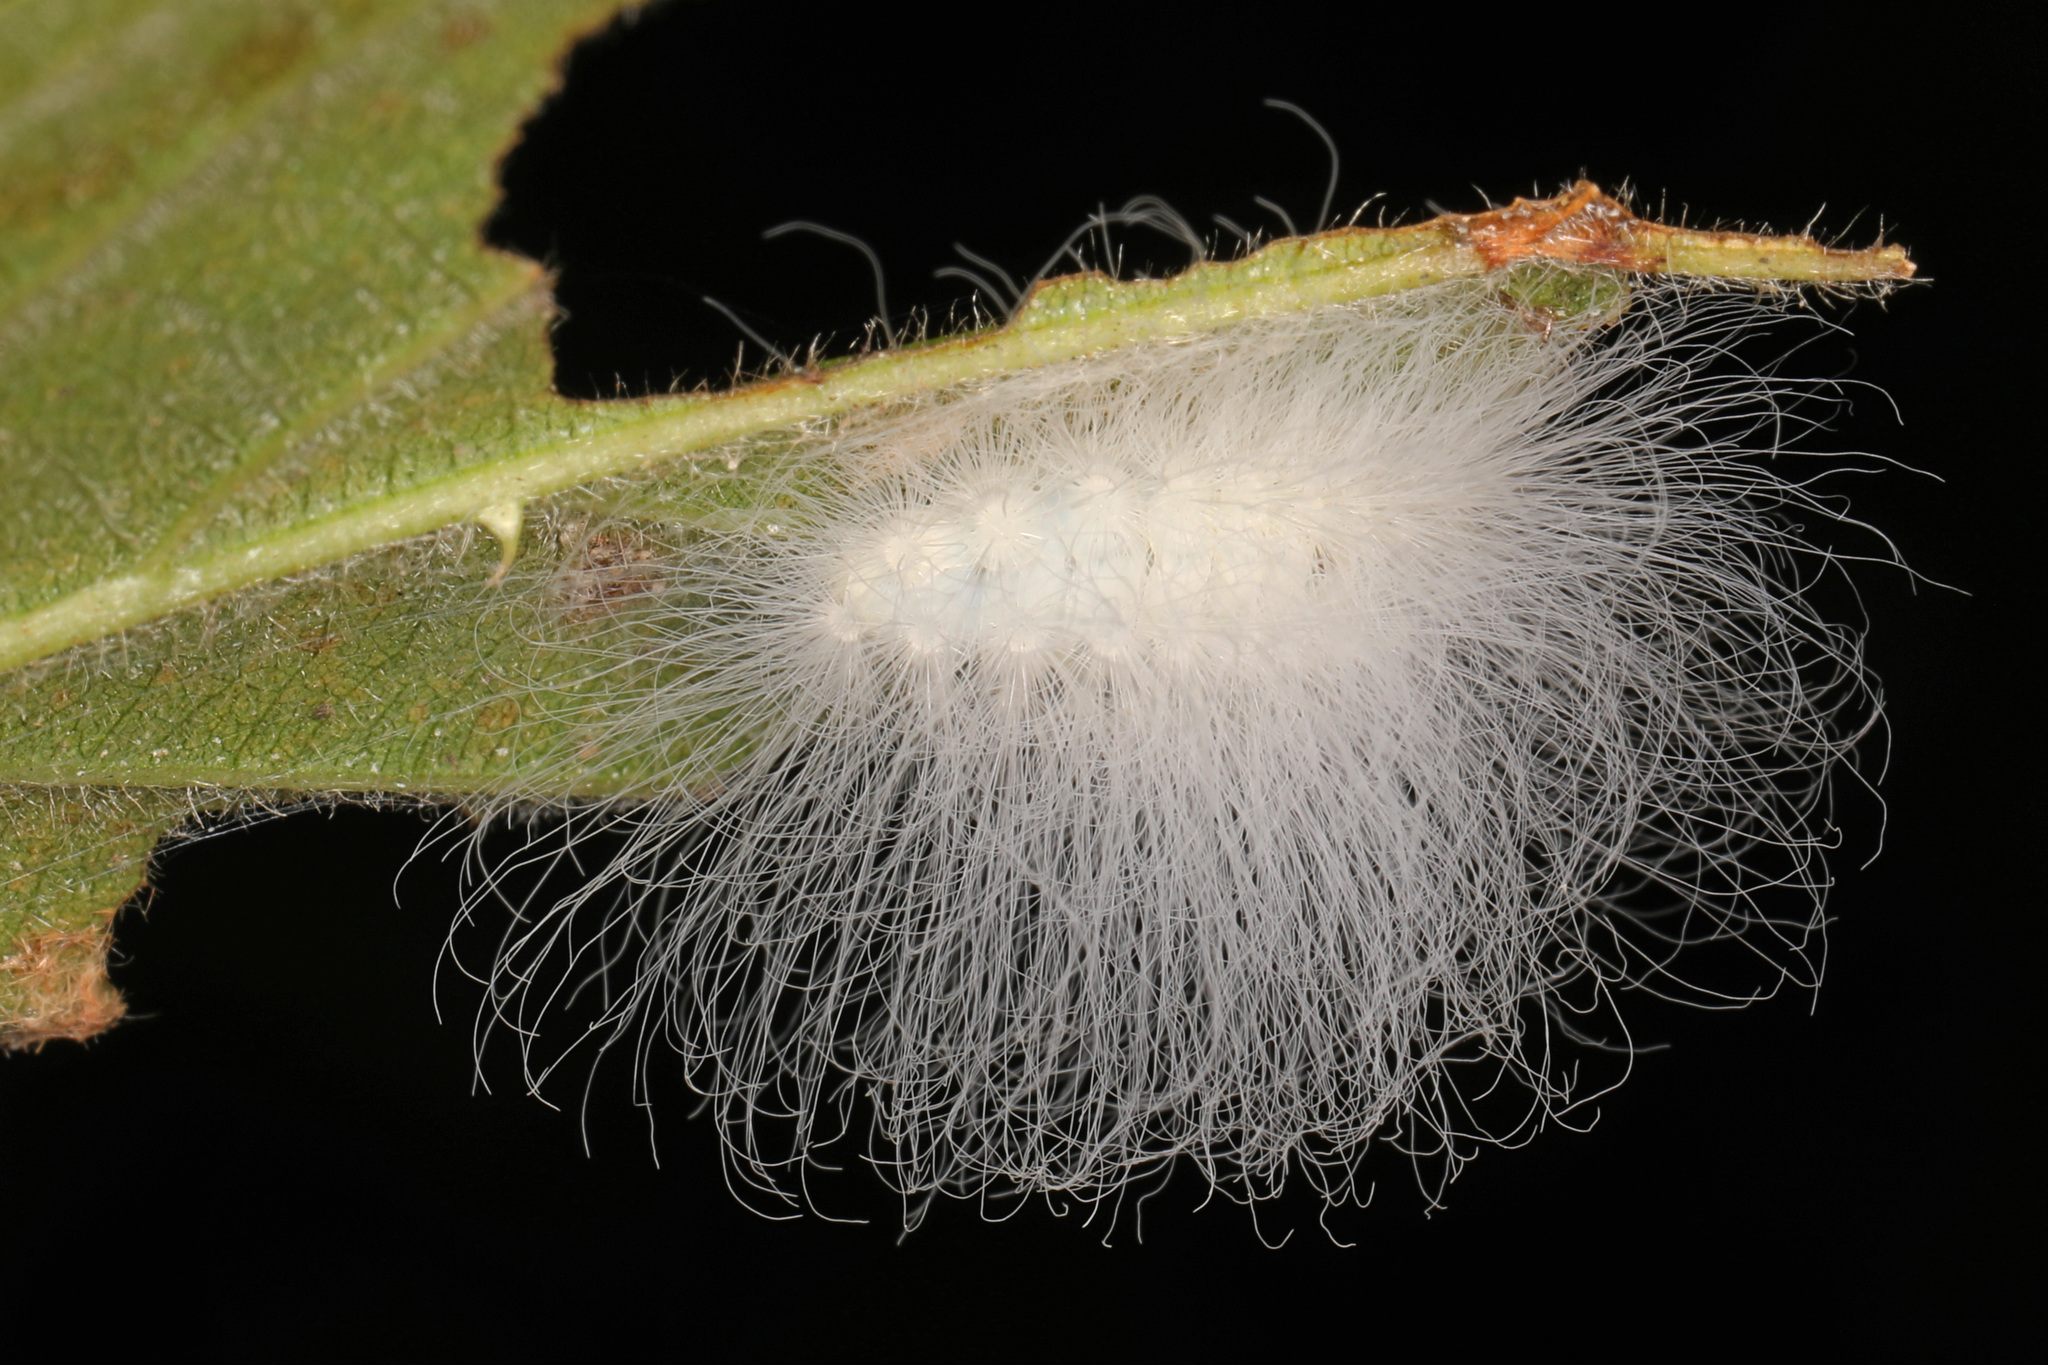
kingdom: Animalia
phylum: Arthropoda
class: Insecta
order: Lepidoptera
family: Megalopygidae
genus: Megalopyge
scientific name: Megalopyge crispata
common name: Black-waved flannel moth
